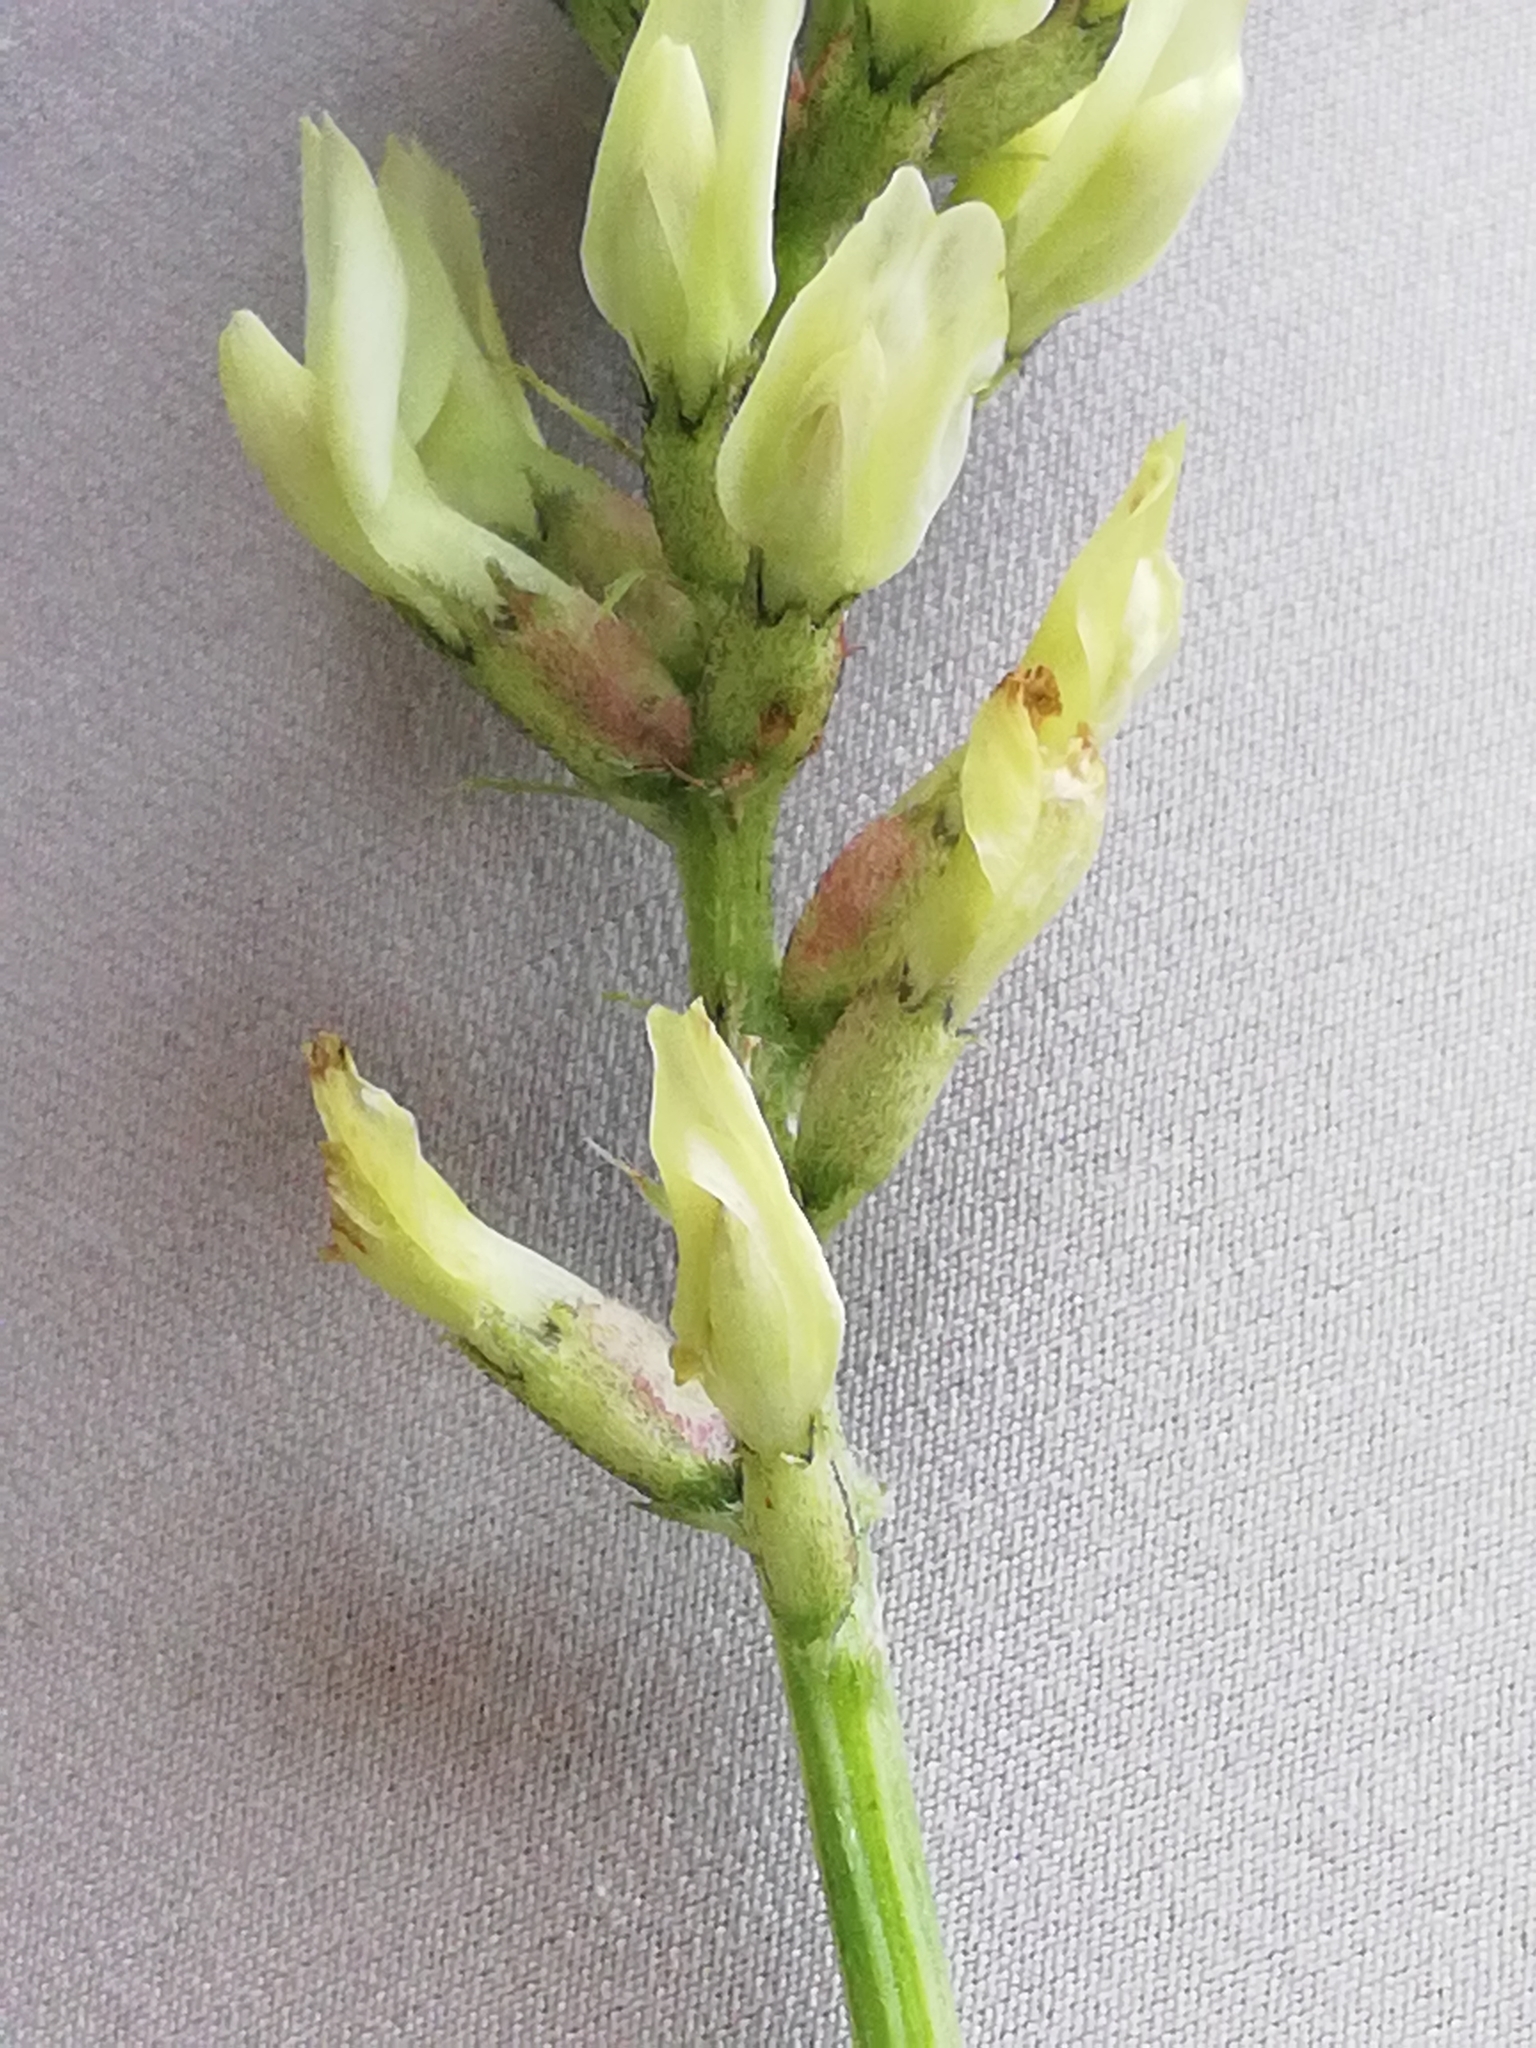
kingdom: Plantae
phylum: Tracheophyta
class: Magnoliopsida
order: Fabales
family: Fabaceae
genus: Astragalus
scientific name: Astragalus cicer
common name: Chick-pea milk-vetch
